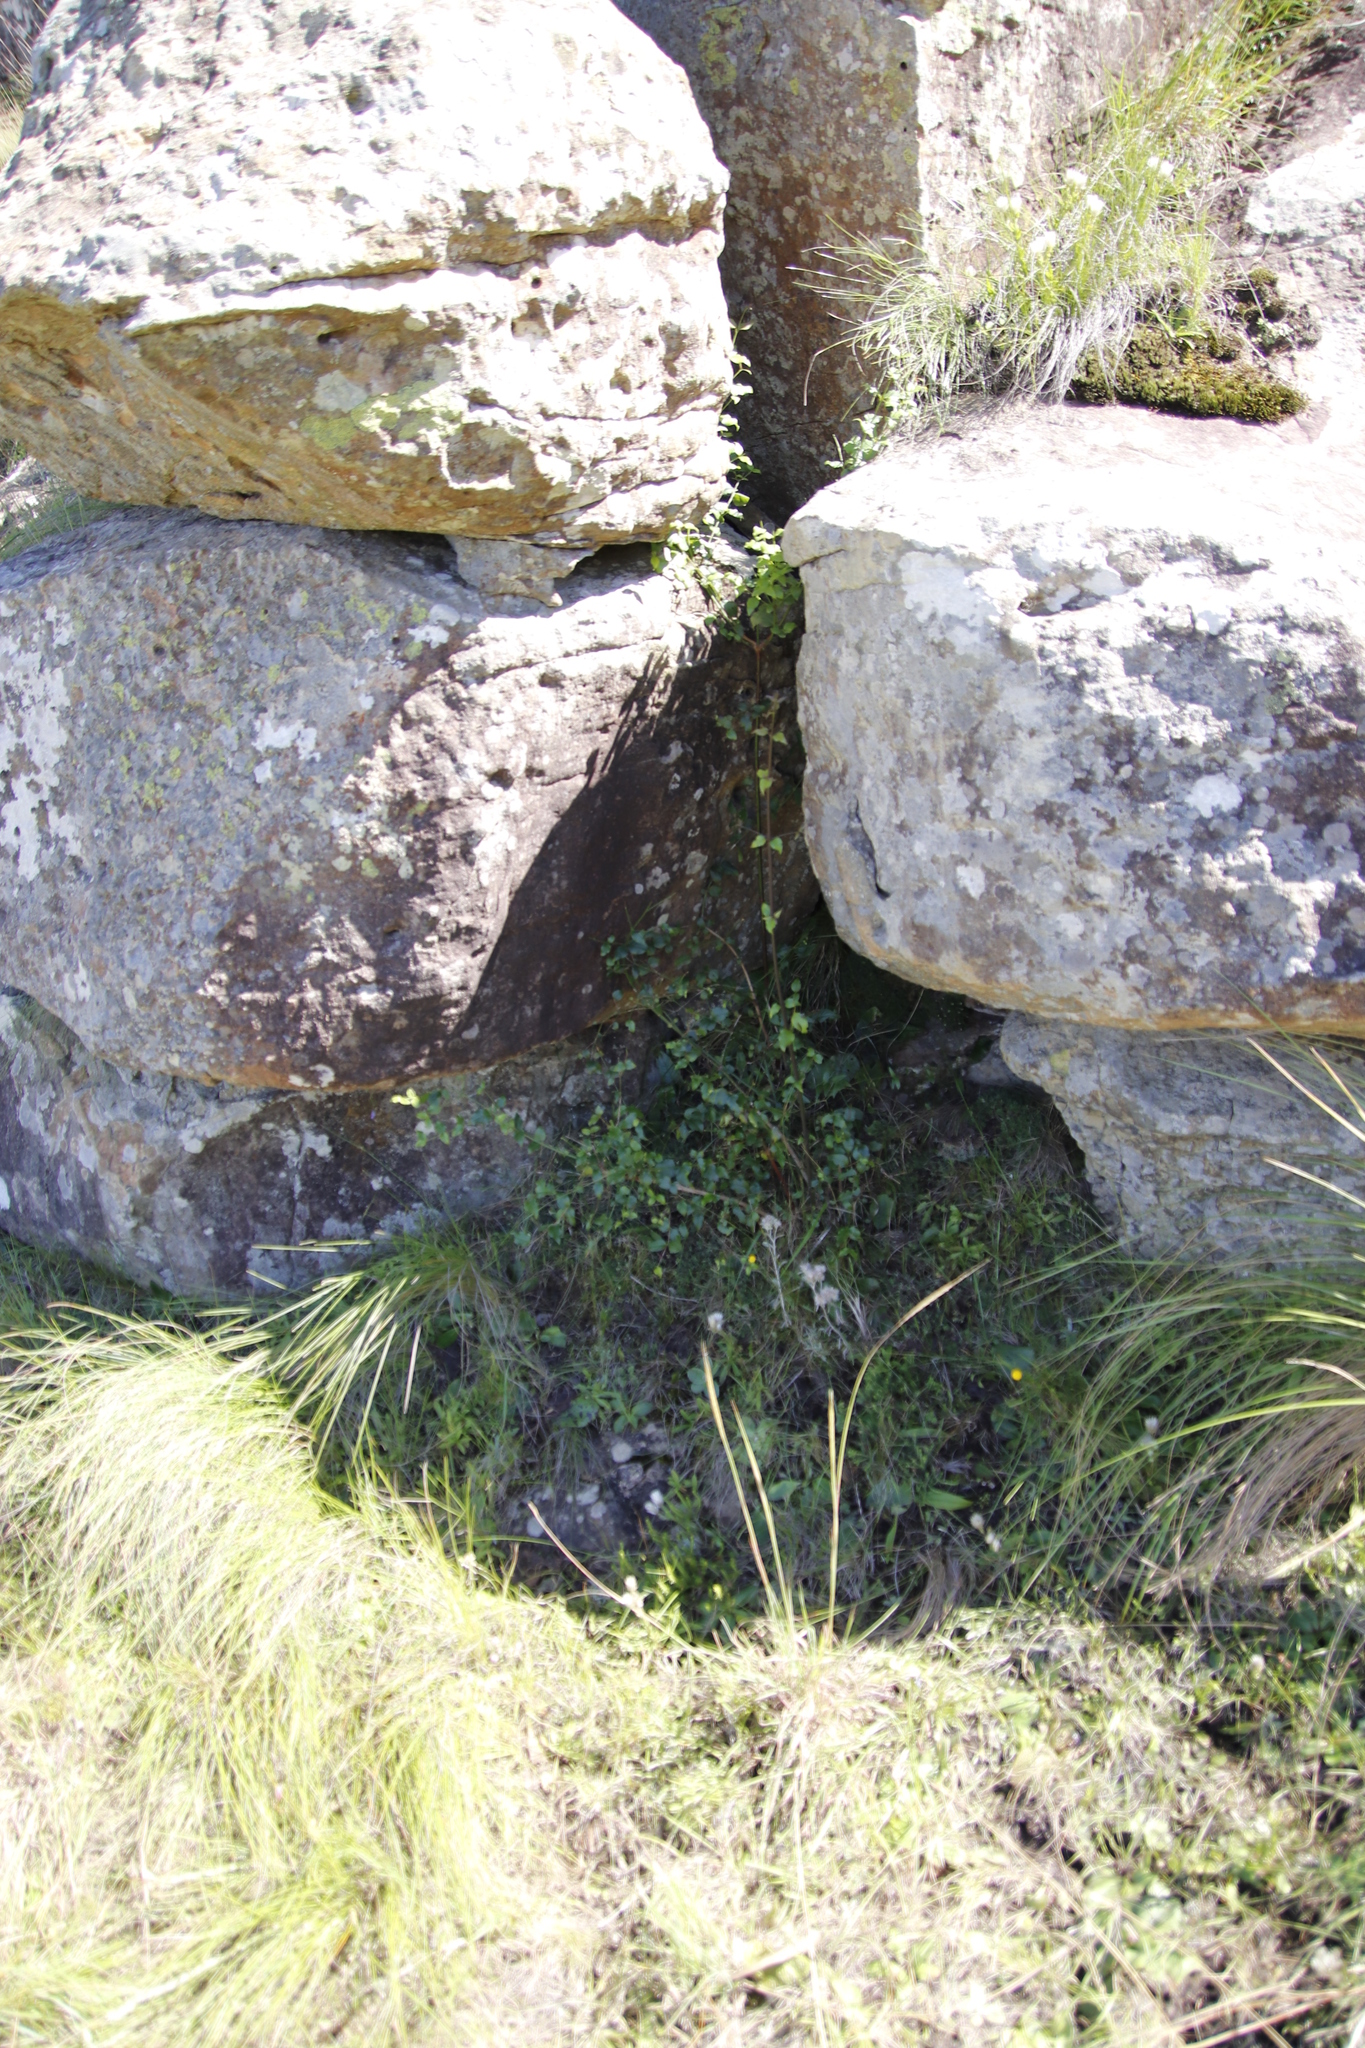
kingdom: Plantae
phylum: Tracheophyta
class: Magnoliopsida
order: Lamiales
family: Stilbaceae
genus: Halleria
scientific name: Halleria lucida
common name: Tree fuschia
